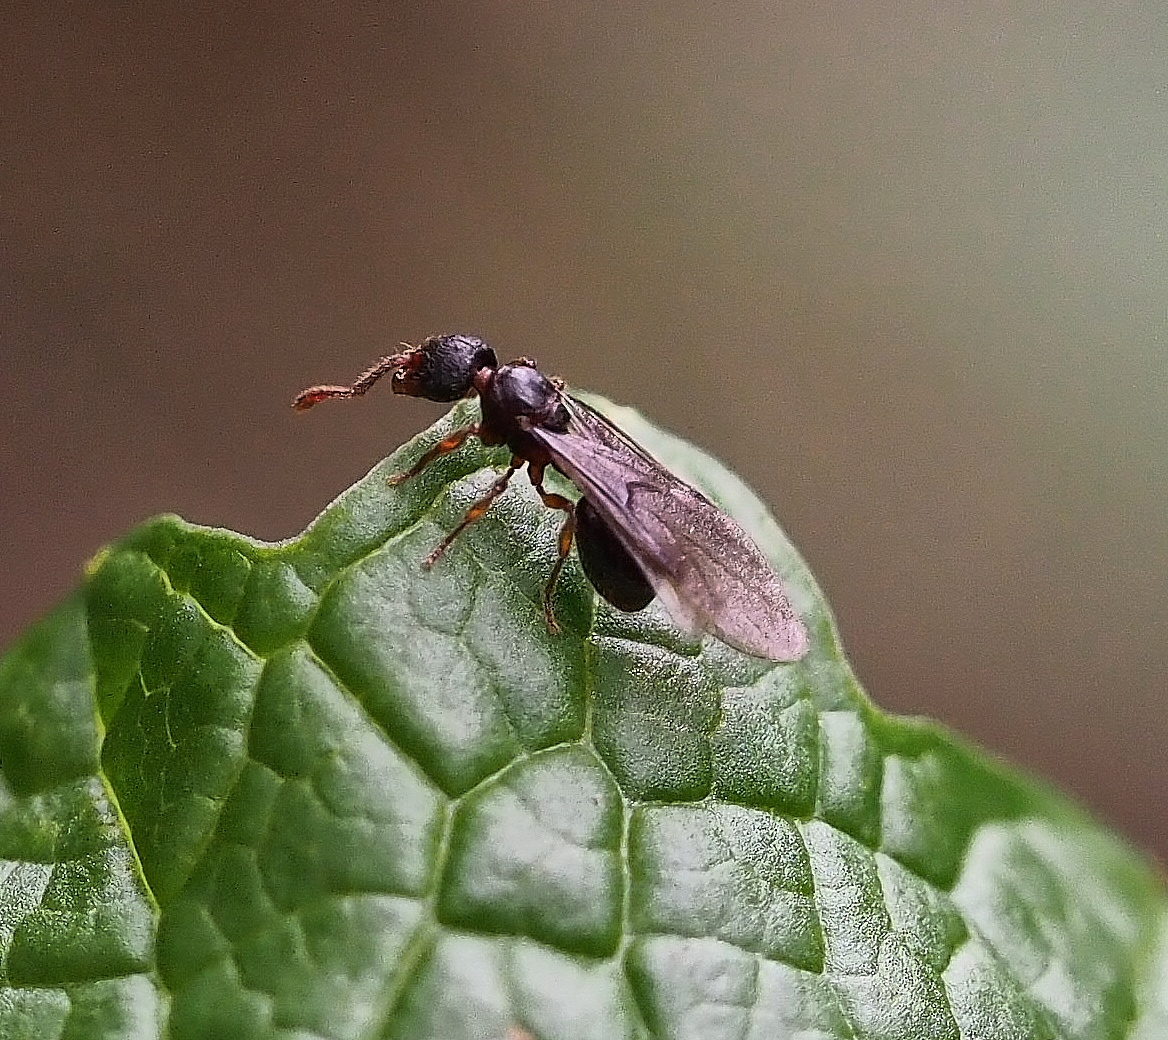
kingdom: Animalia
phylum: Arthropoda
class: Insecta
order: Hymenoptera
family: Formicidae
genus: Myrmecina
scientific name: Myrmecina graminicola
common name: Grass ant
